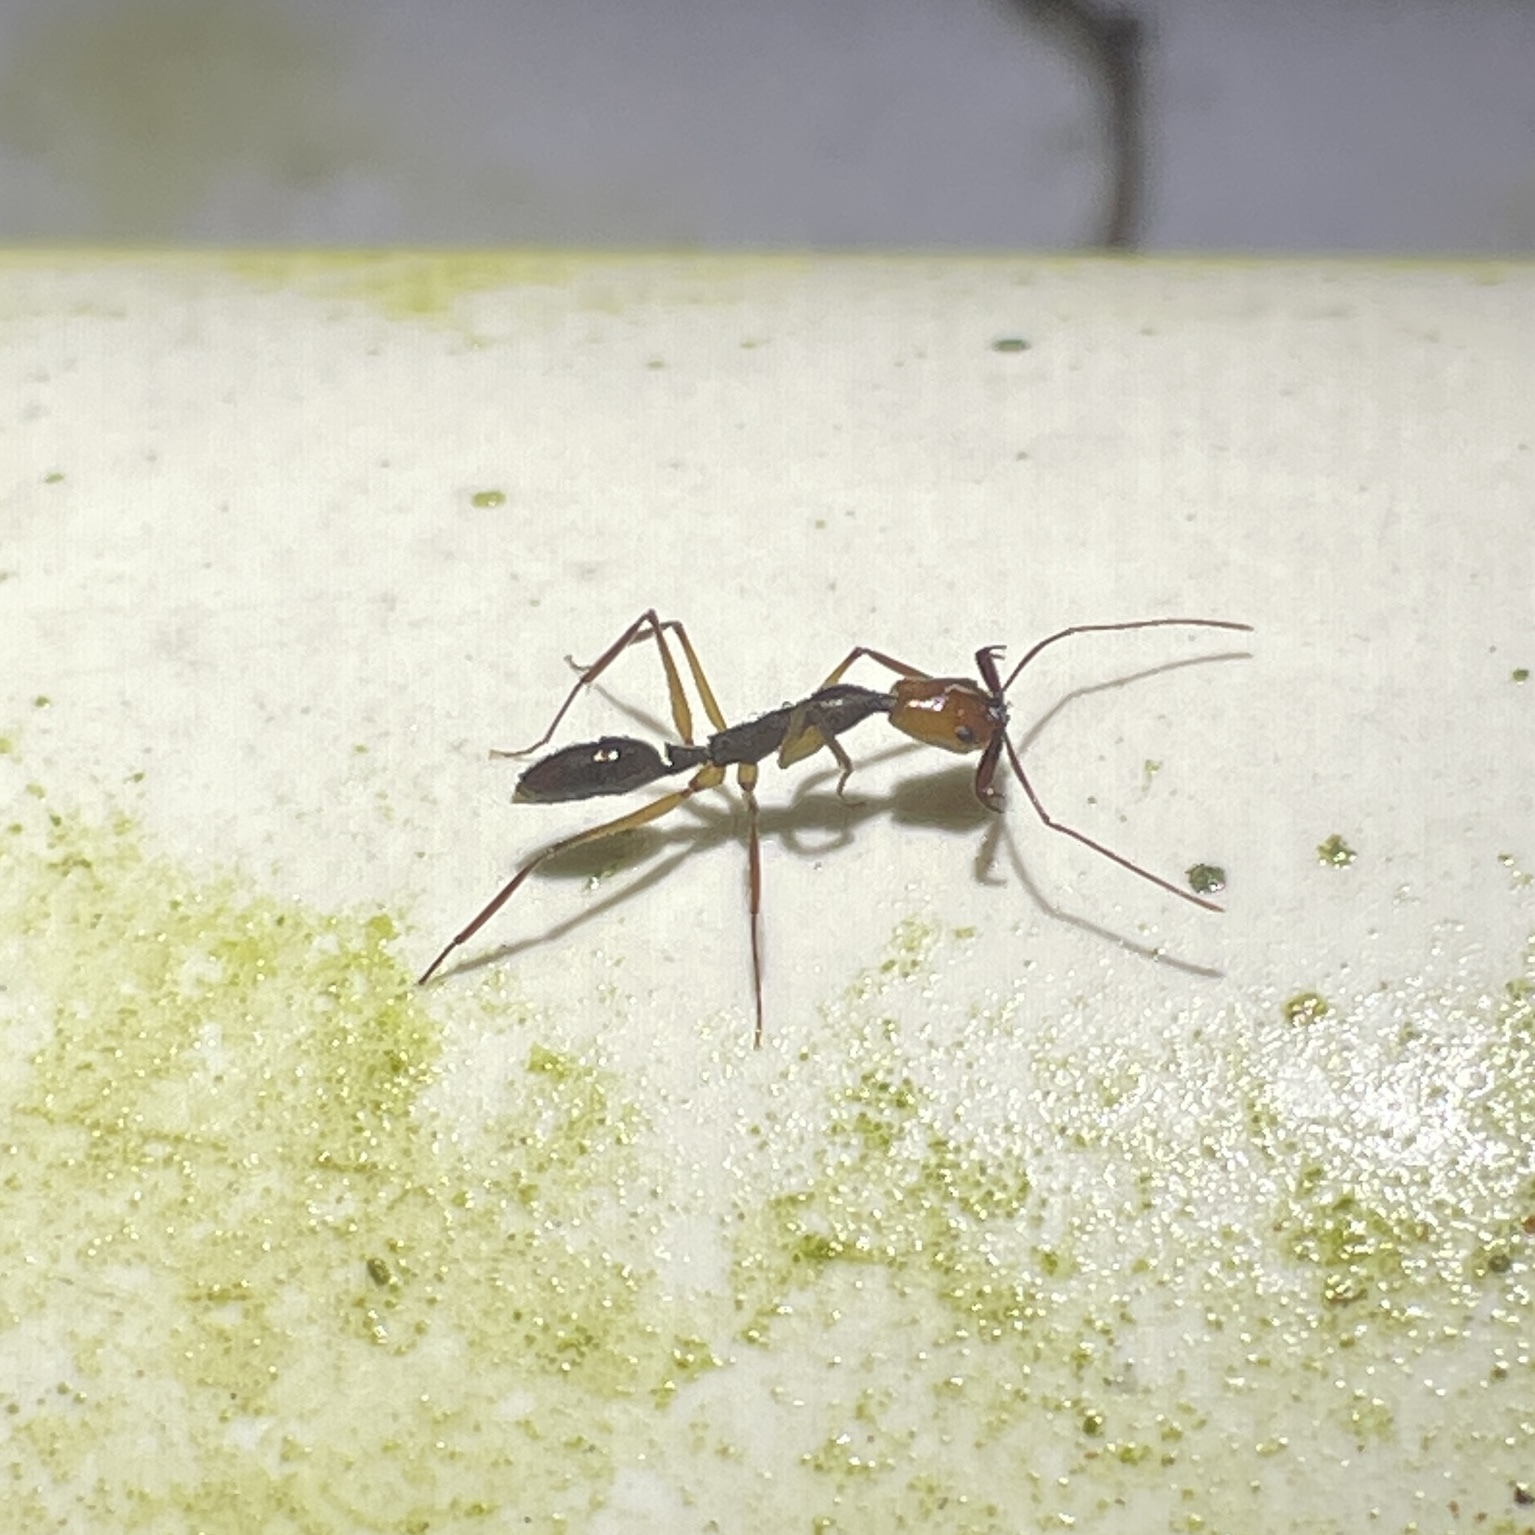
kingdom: Animalia
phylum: Arthropoda
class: Insecta
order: Hymenoptera
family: Formicidae
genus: Anochetus
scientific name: Anochetus emarginatus
